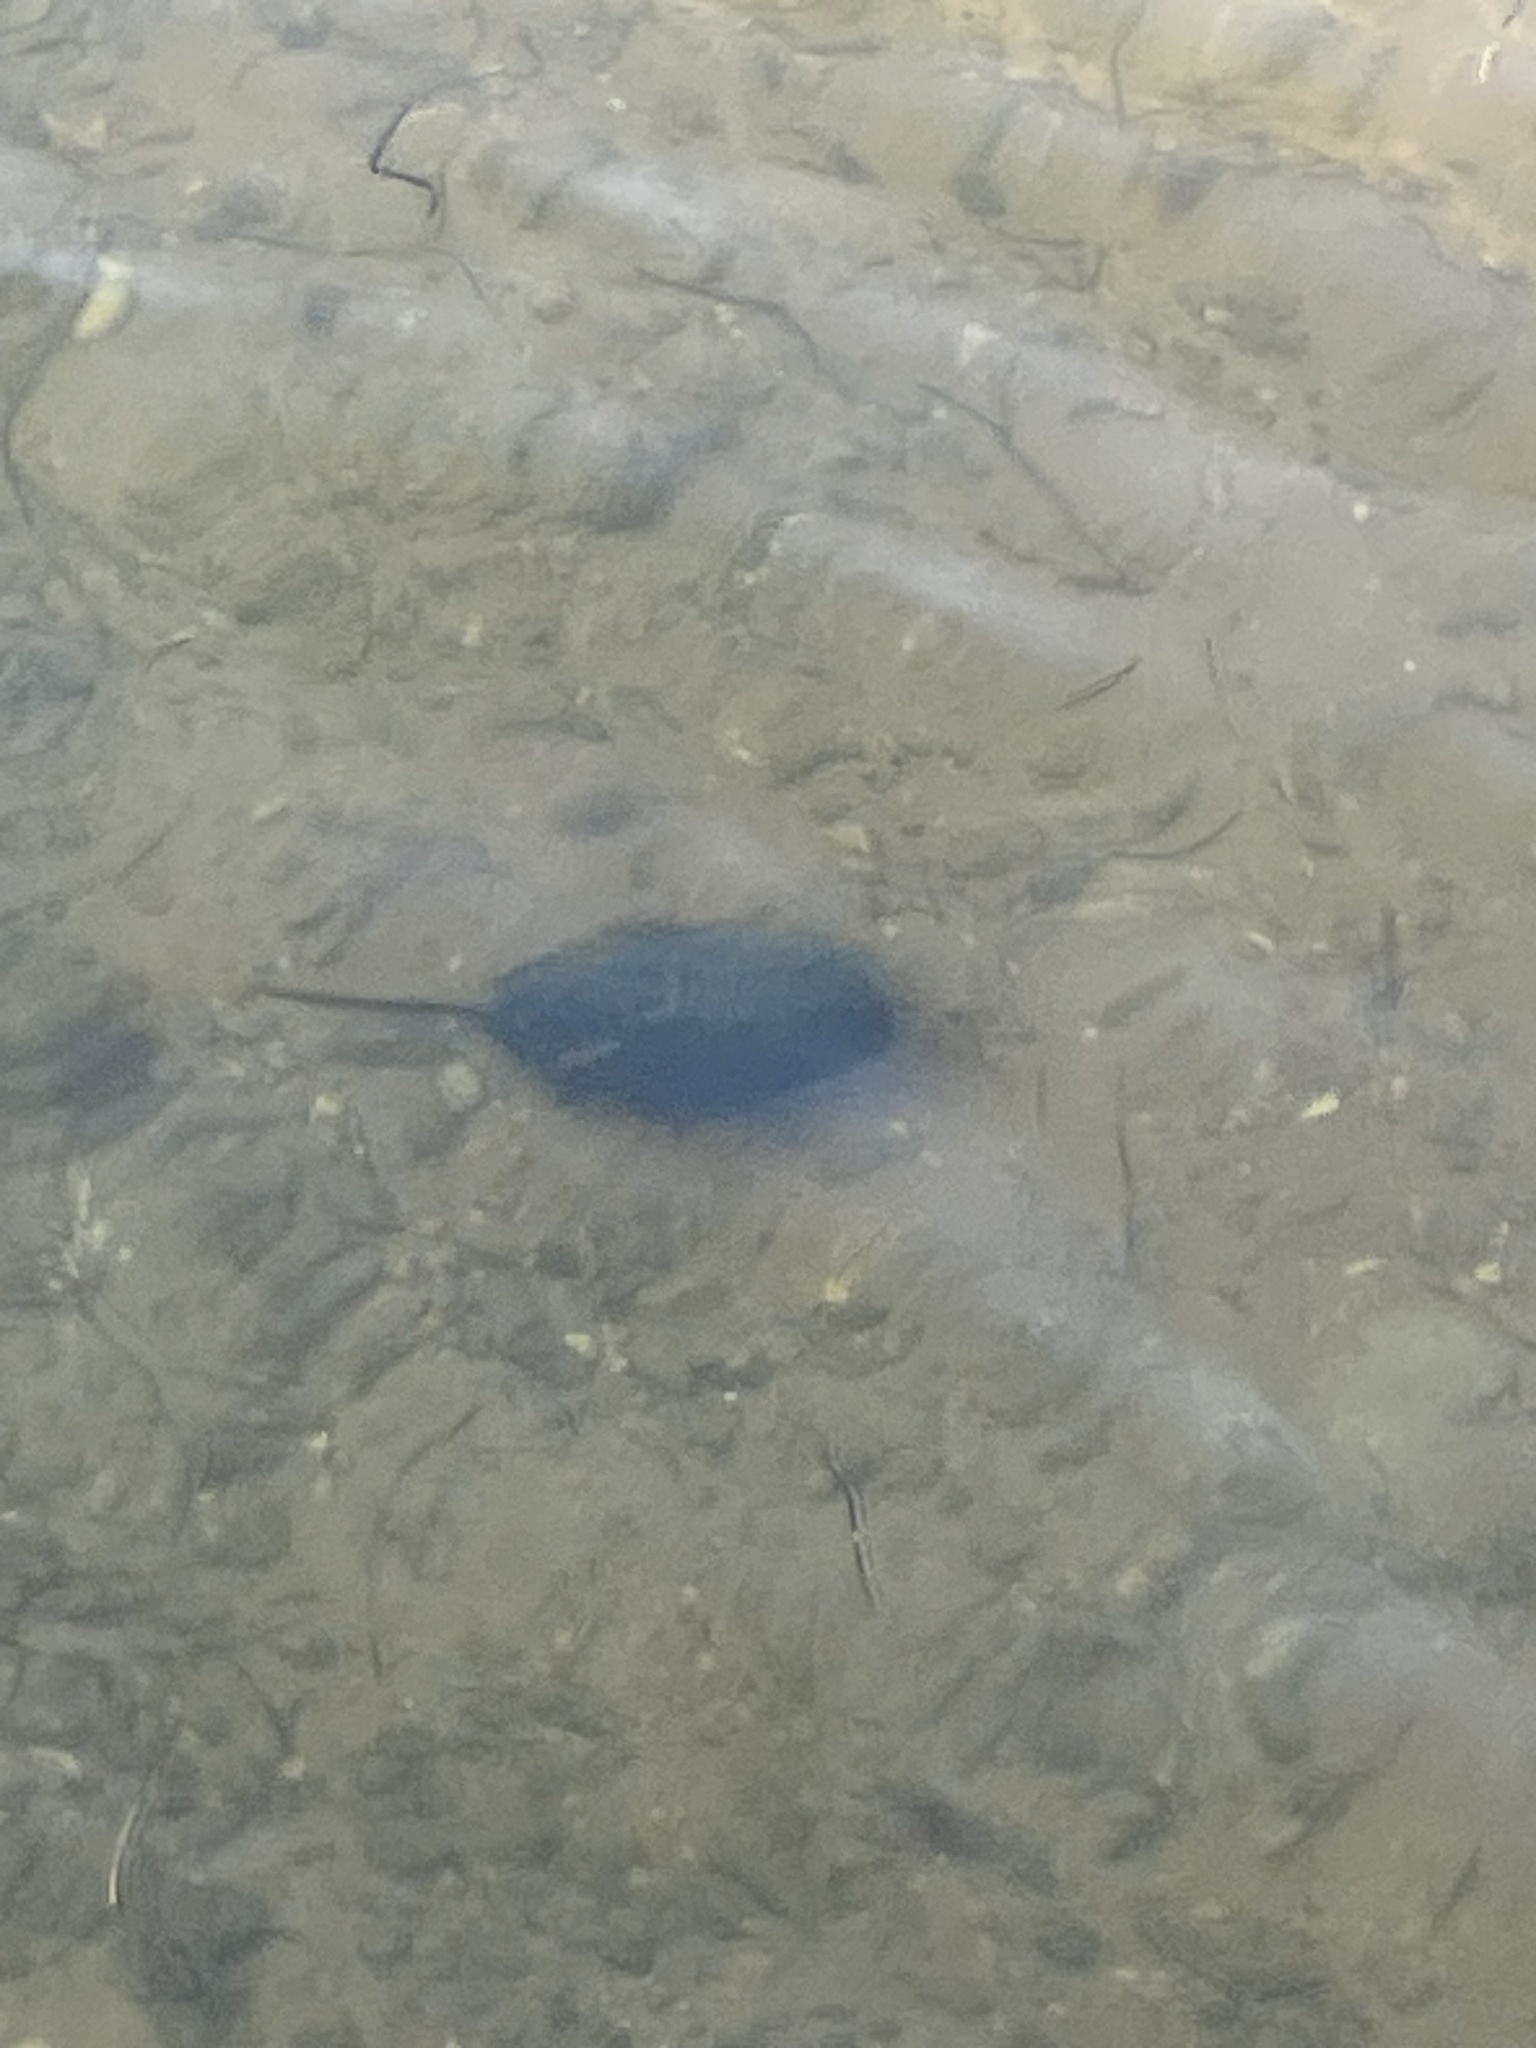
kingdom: Animalia
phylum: Arthropoda
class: Merostomata
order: Xiphosurida
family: Limulidae
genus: Limulus
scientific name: Limulus polyphemus
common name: Horseshoe crab
